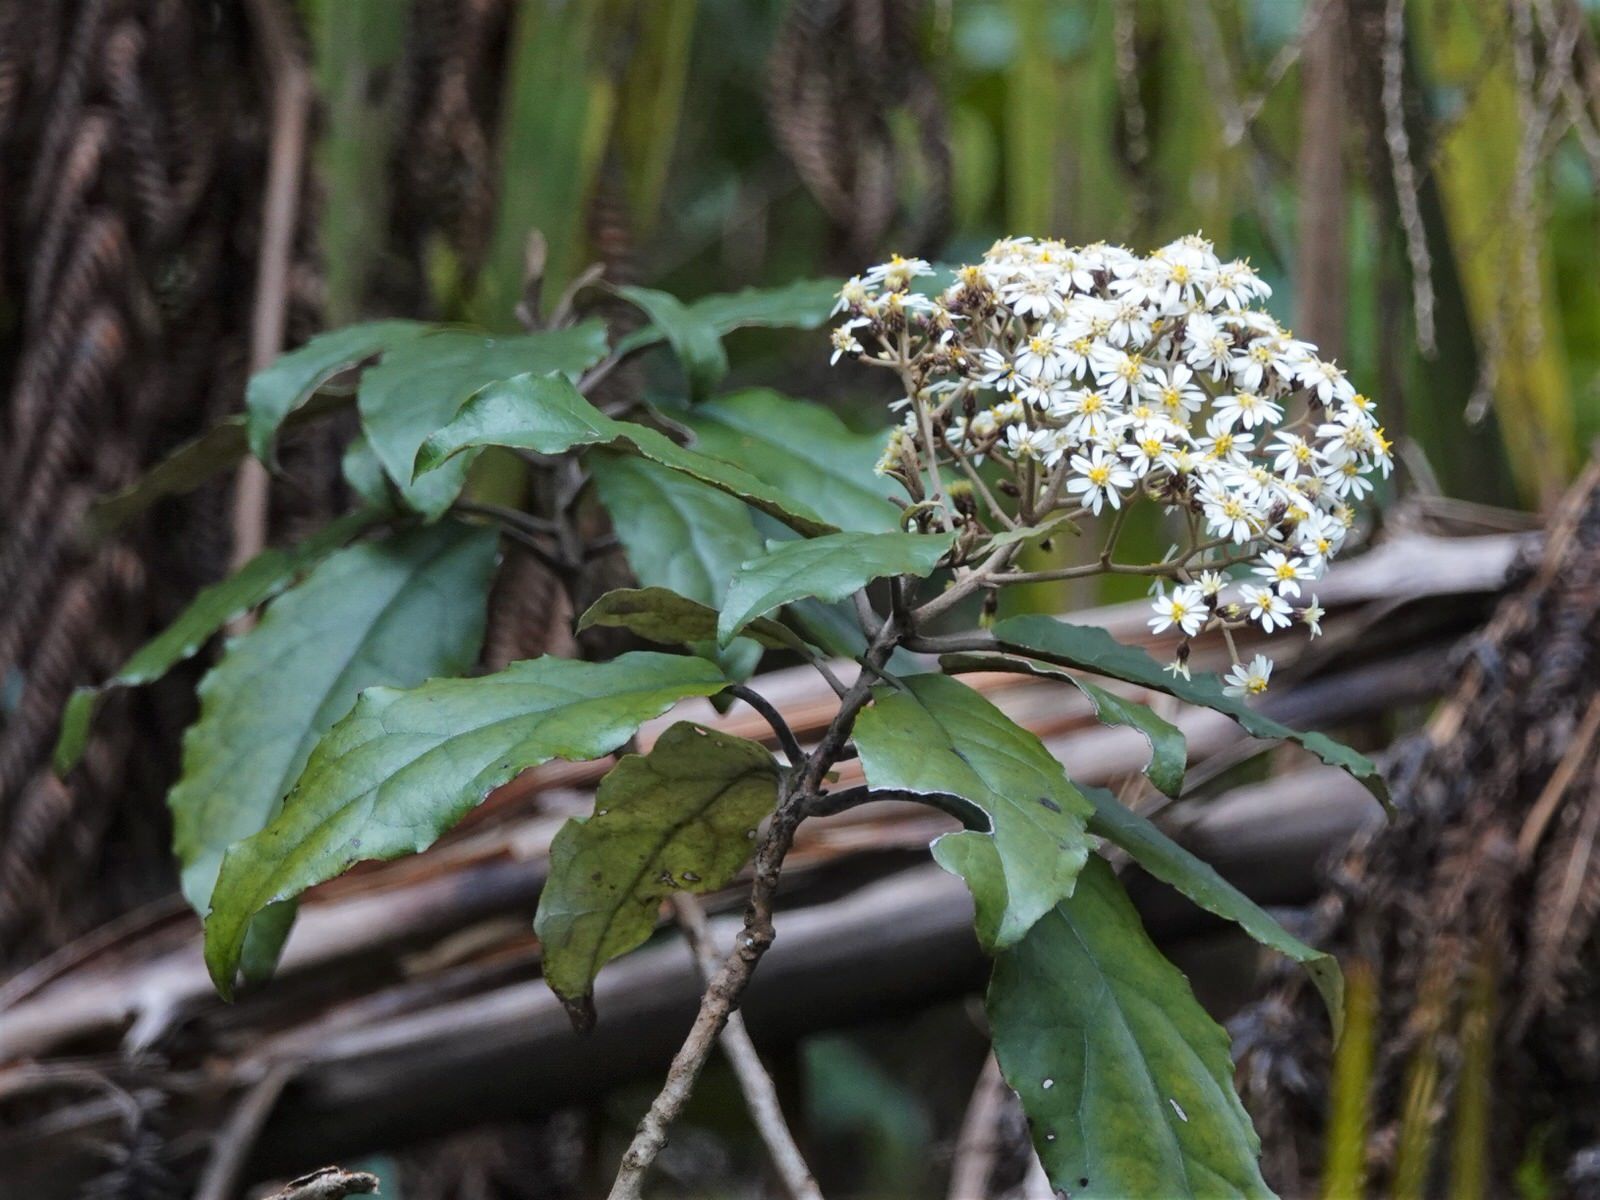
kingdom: Plantae
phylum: Tracheophyta
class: Magnoliopsida
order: Asterales
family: Asteraceae
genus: Olearia
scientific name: Olearia rani
